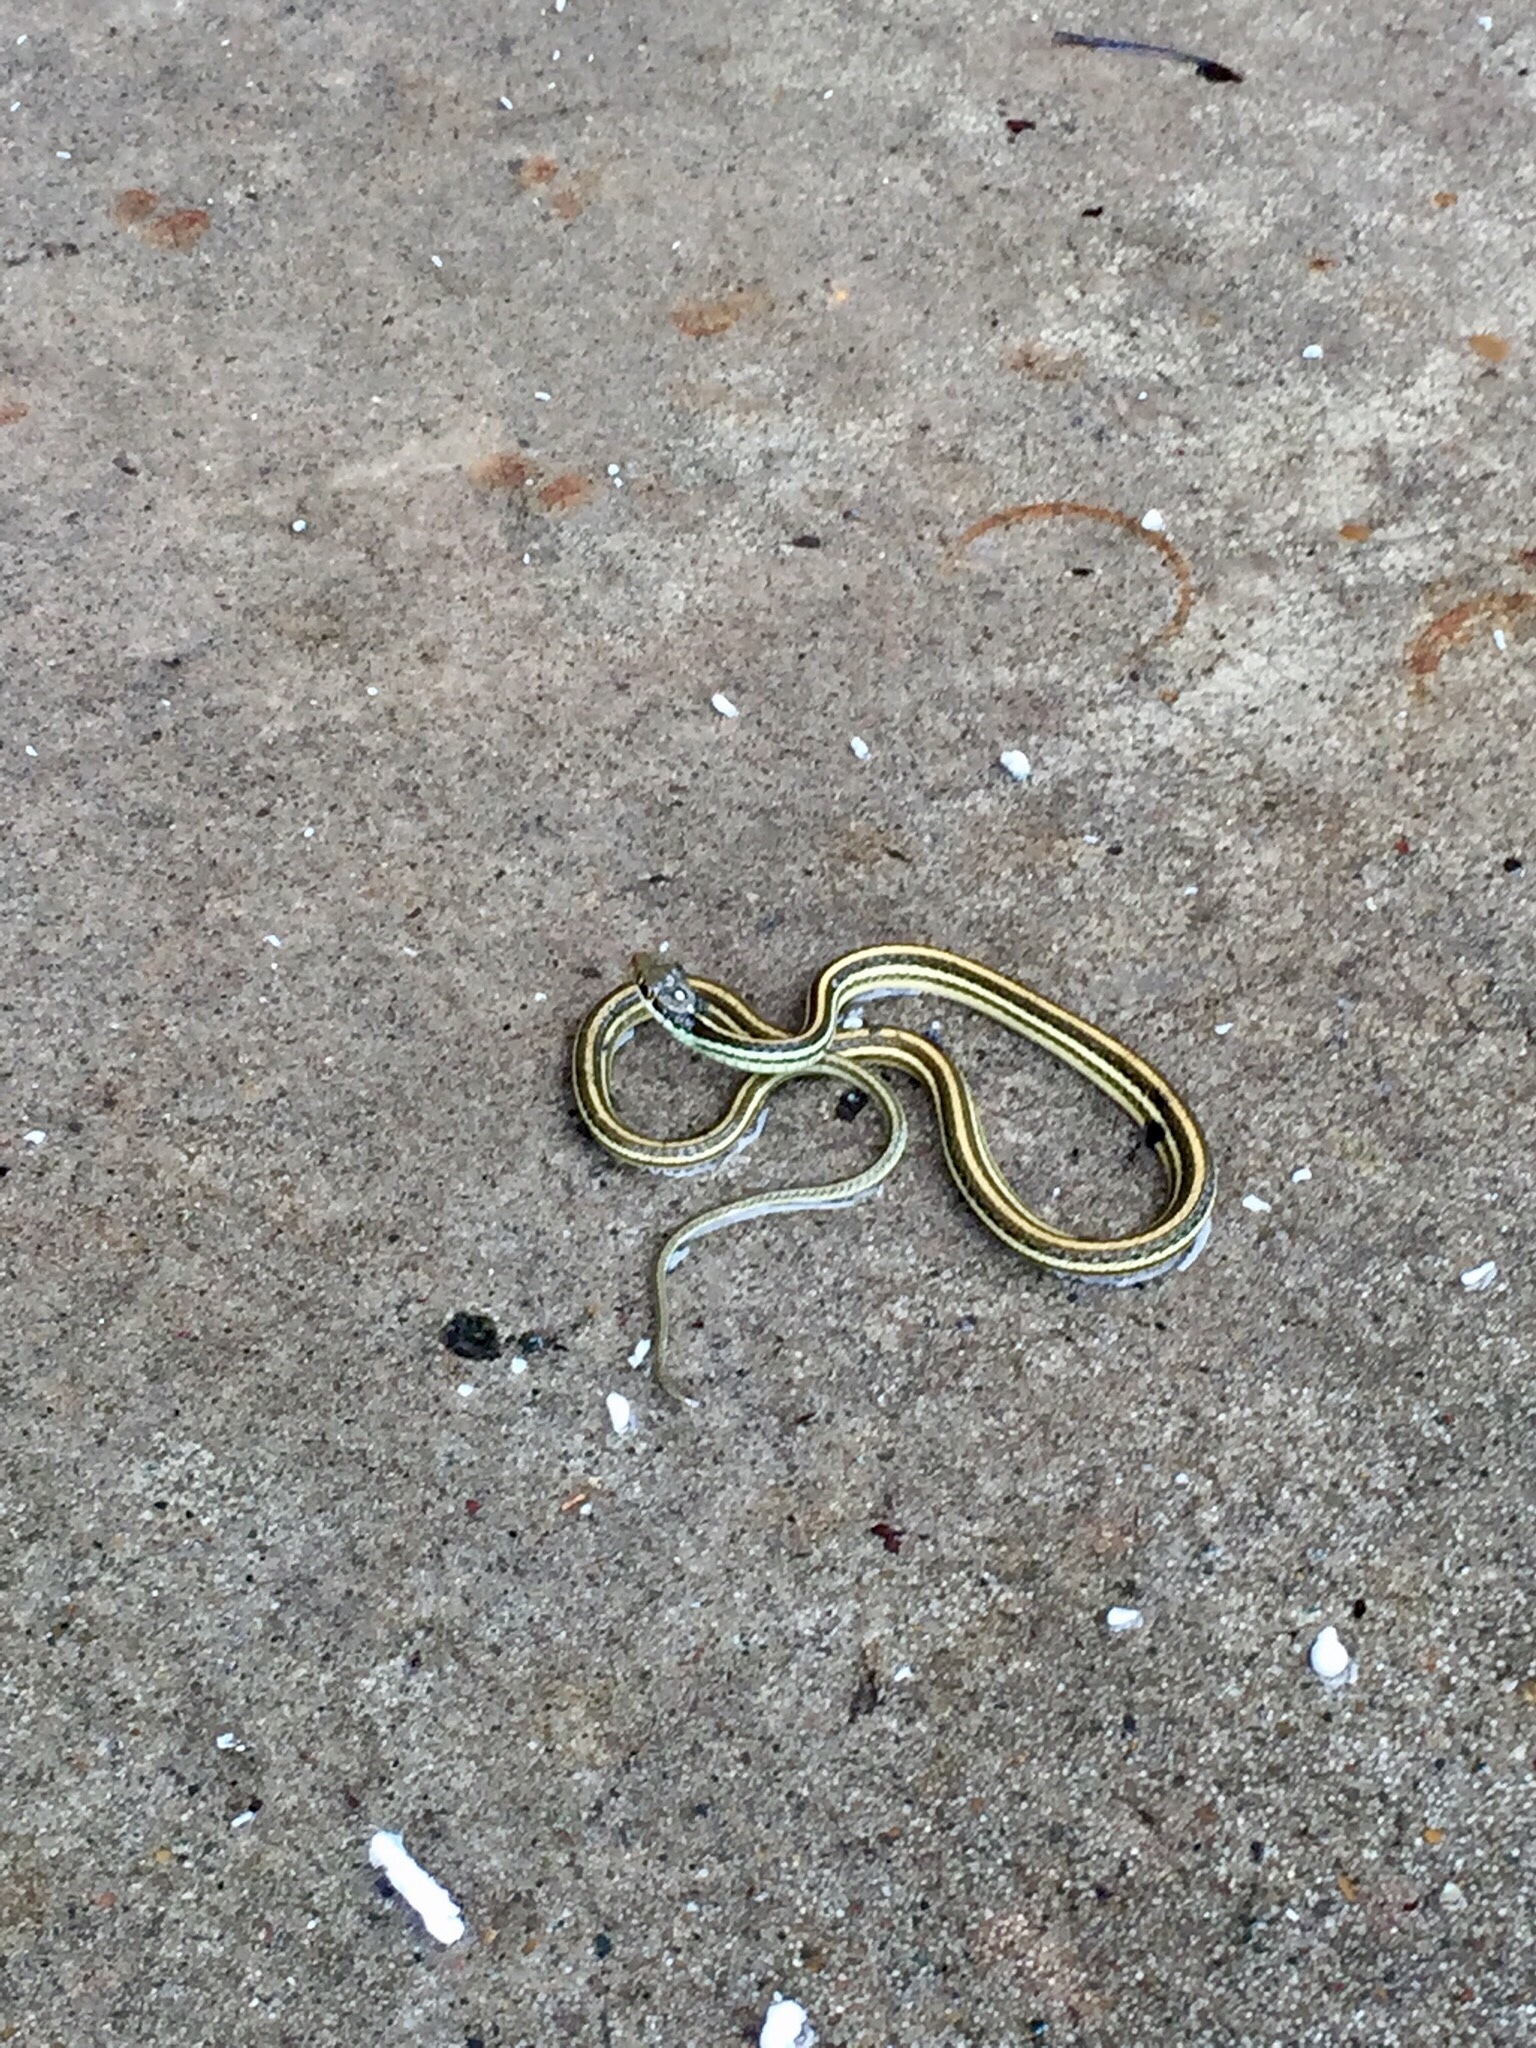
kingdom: Animalia
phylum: Chordata
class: Squamata
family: Colubridae
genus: Thamnophis
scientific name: Thamnophis proximus
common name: Western ribbon snake
